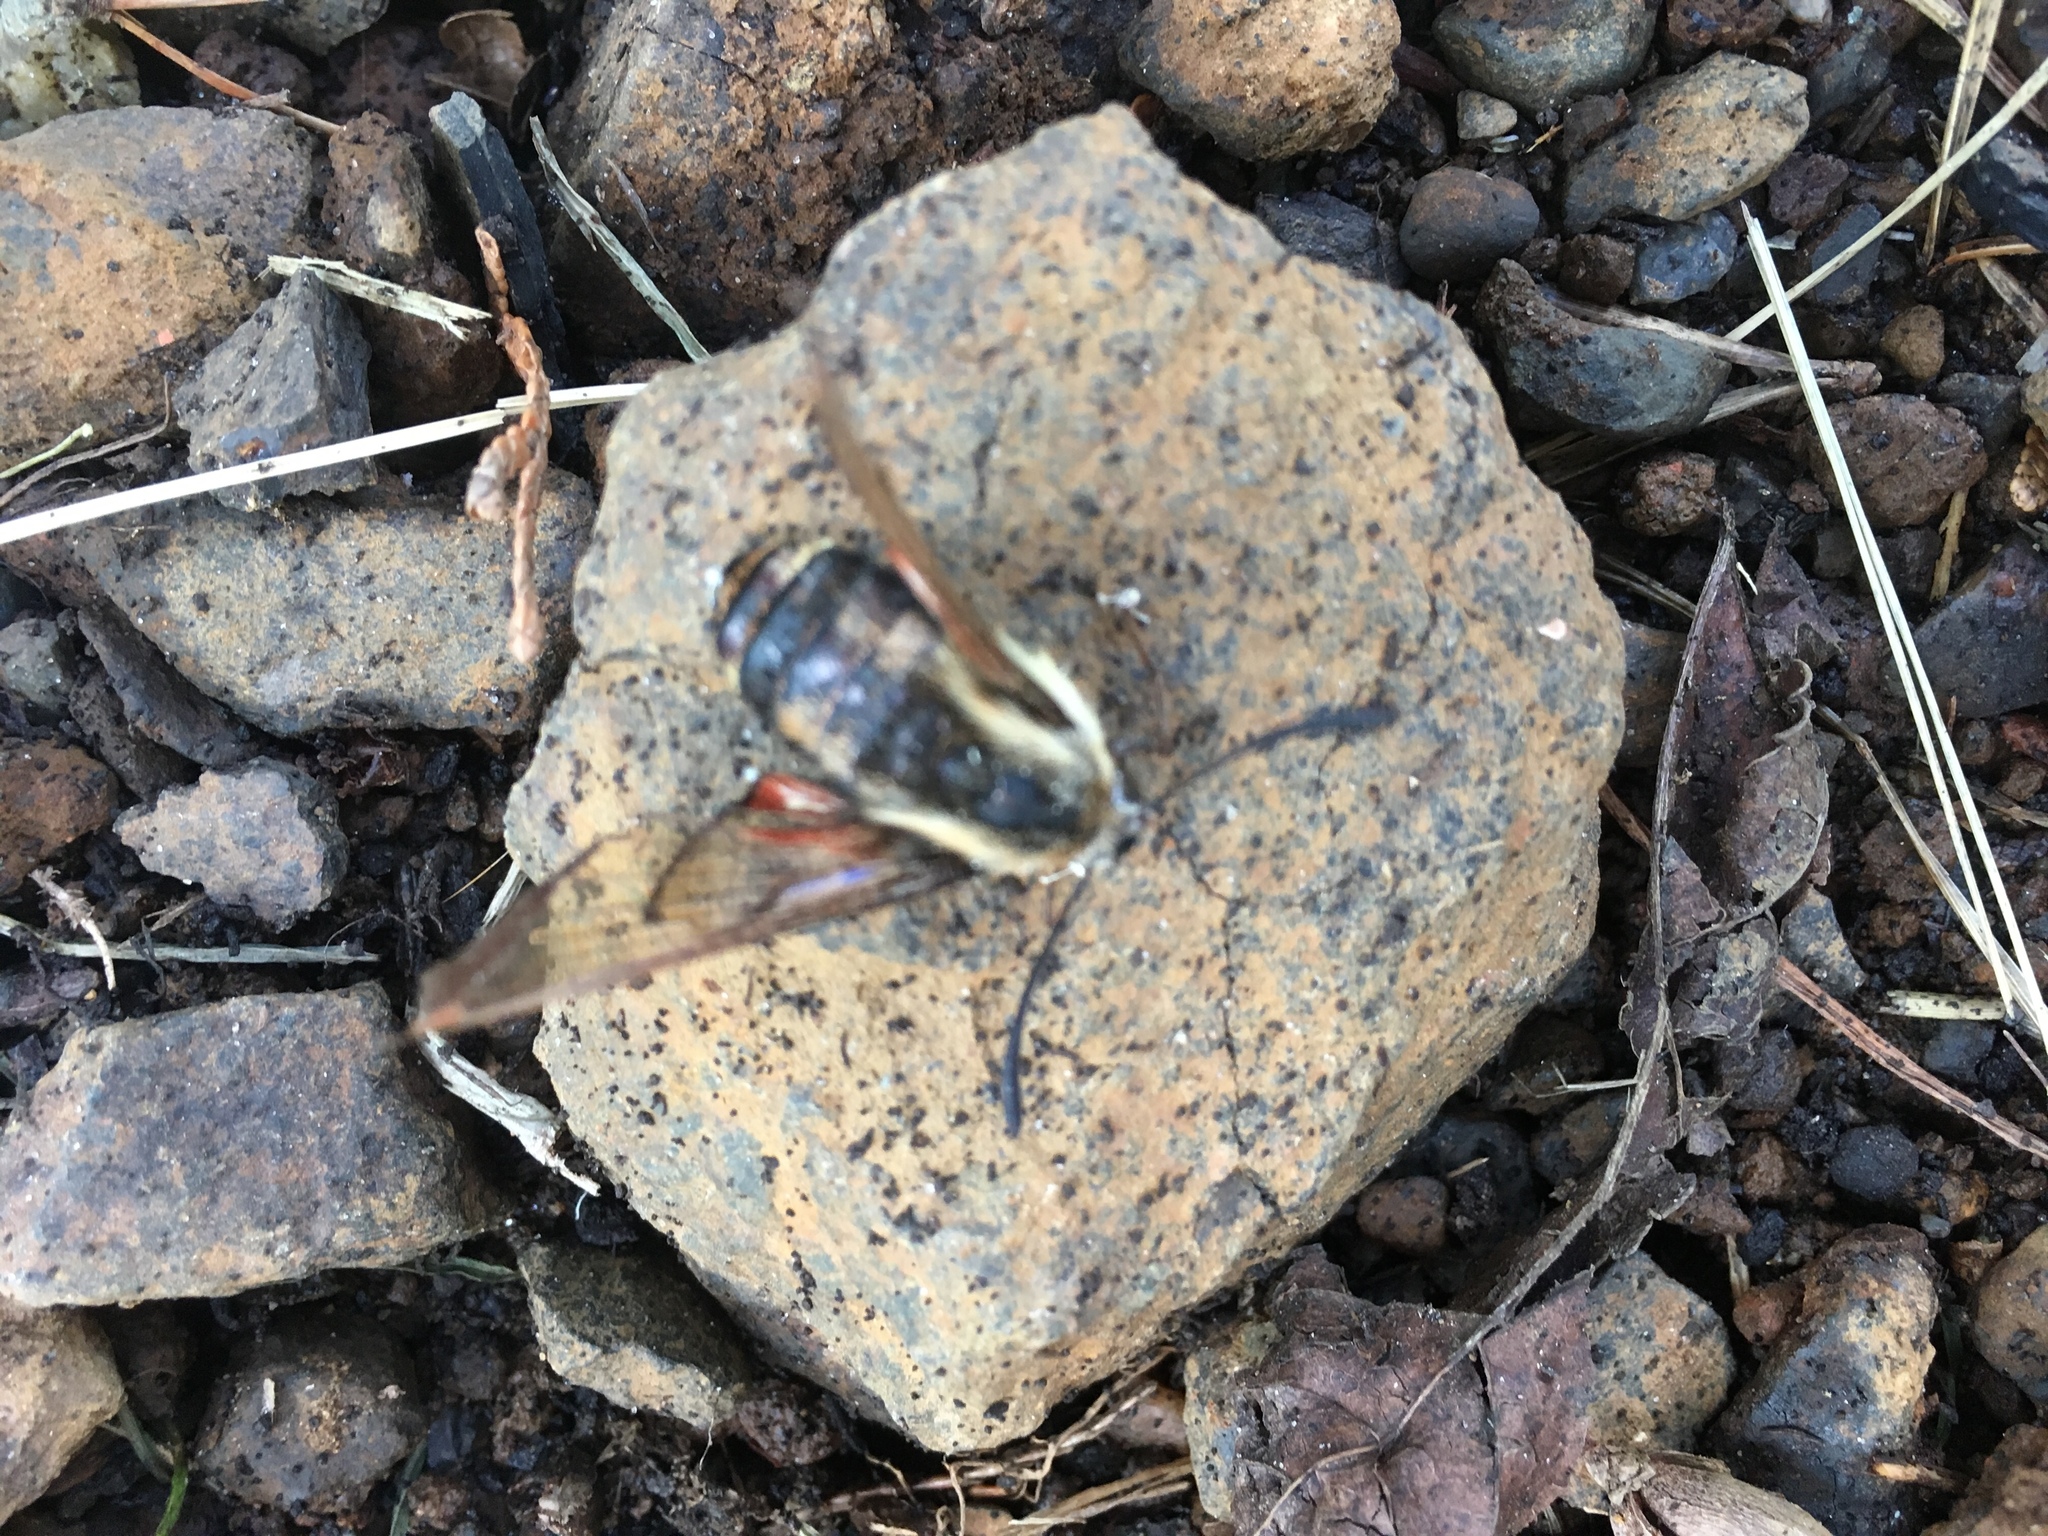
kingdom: Animalia
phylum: Arthropoda
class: Insecta
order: Lepidoptera
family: Sphingidae
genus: Hemaris
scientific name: Hemaris diffinis
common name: Bumblebee moth
